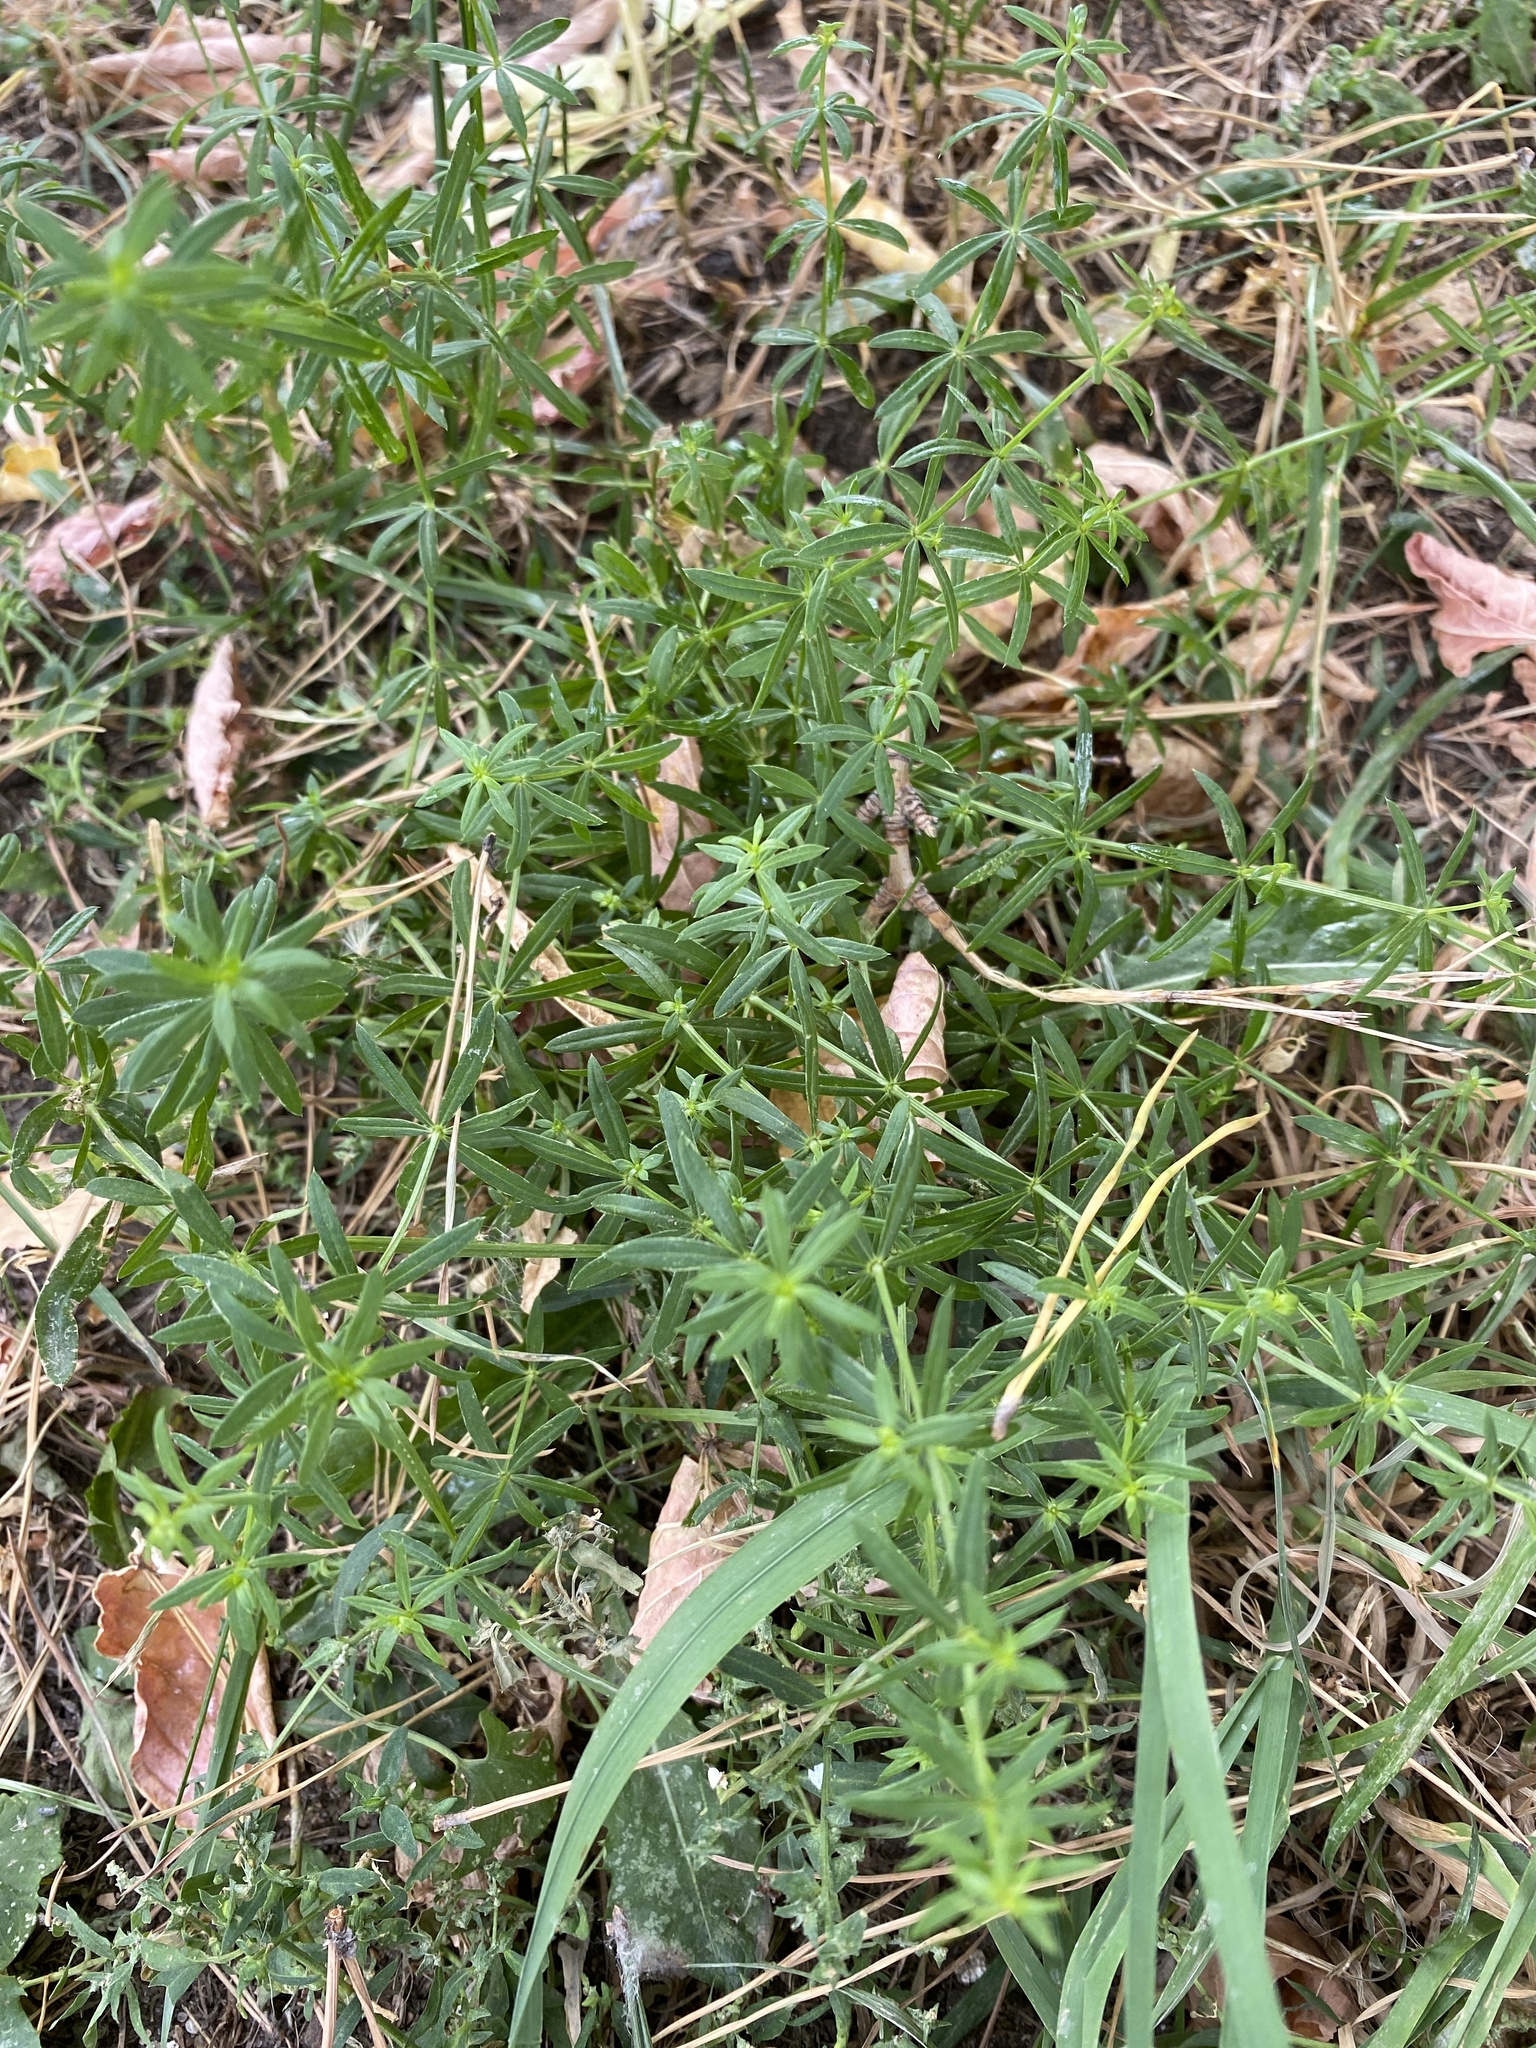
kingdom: Plantae
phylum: Tracheophyta
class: Magnoliopsida
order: Gentianales
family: Rubiaceae
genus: Galium
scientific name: Galium mollugo
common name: Hedge bedstraw
